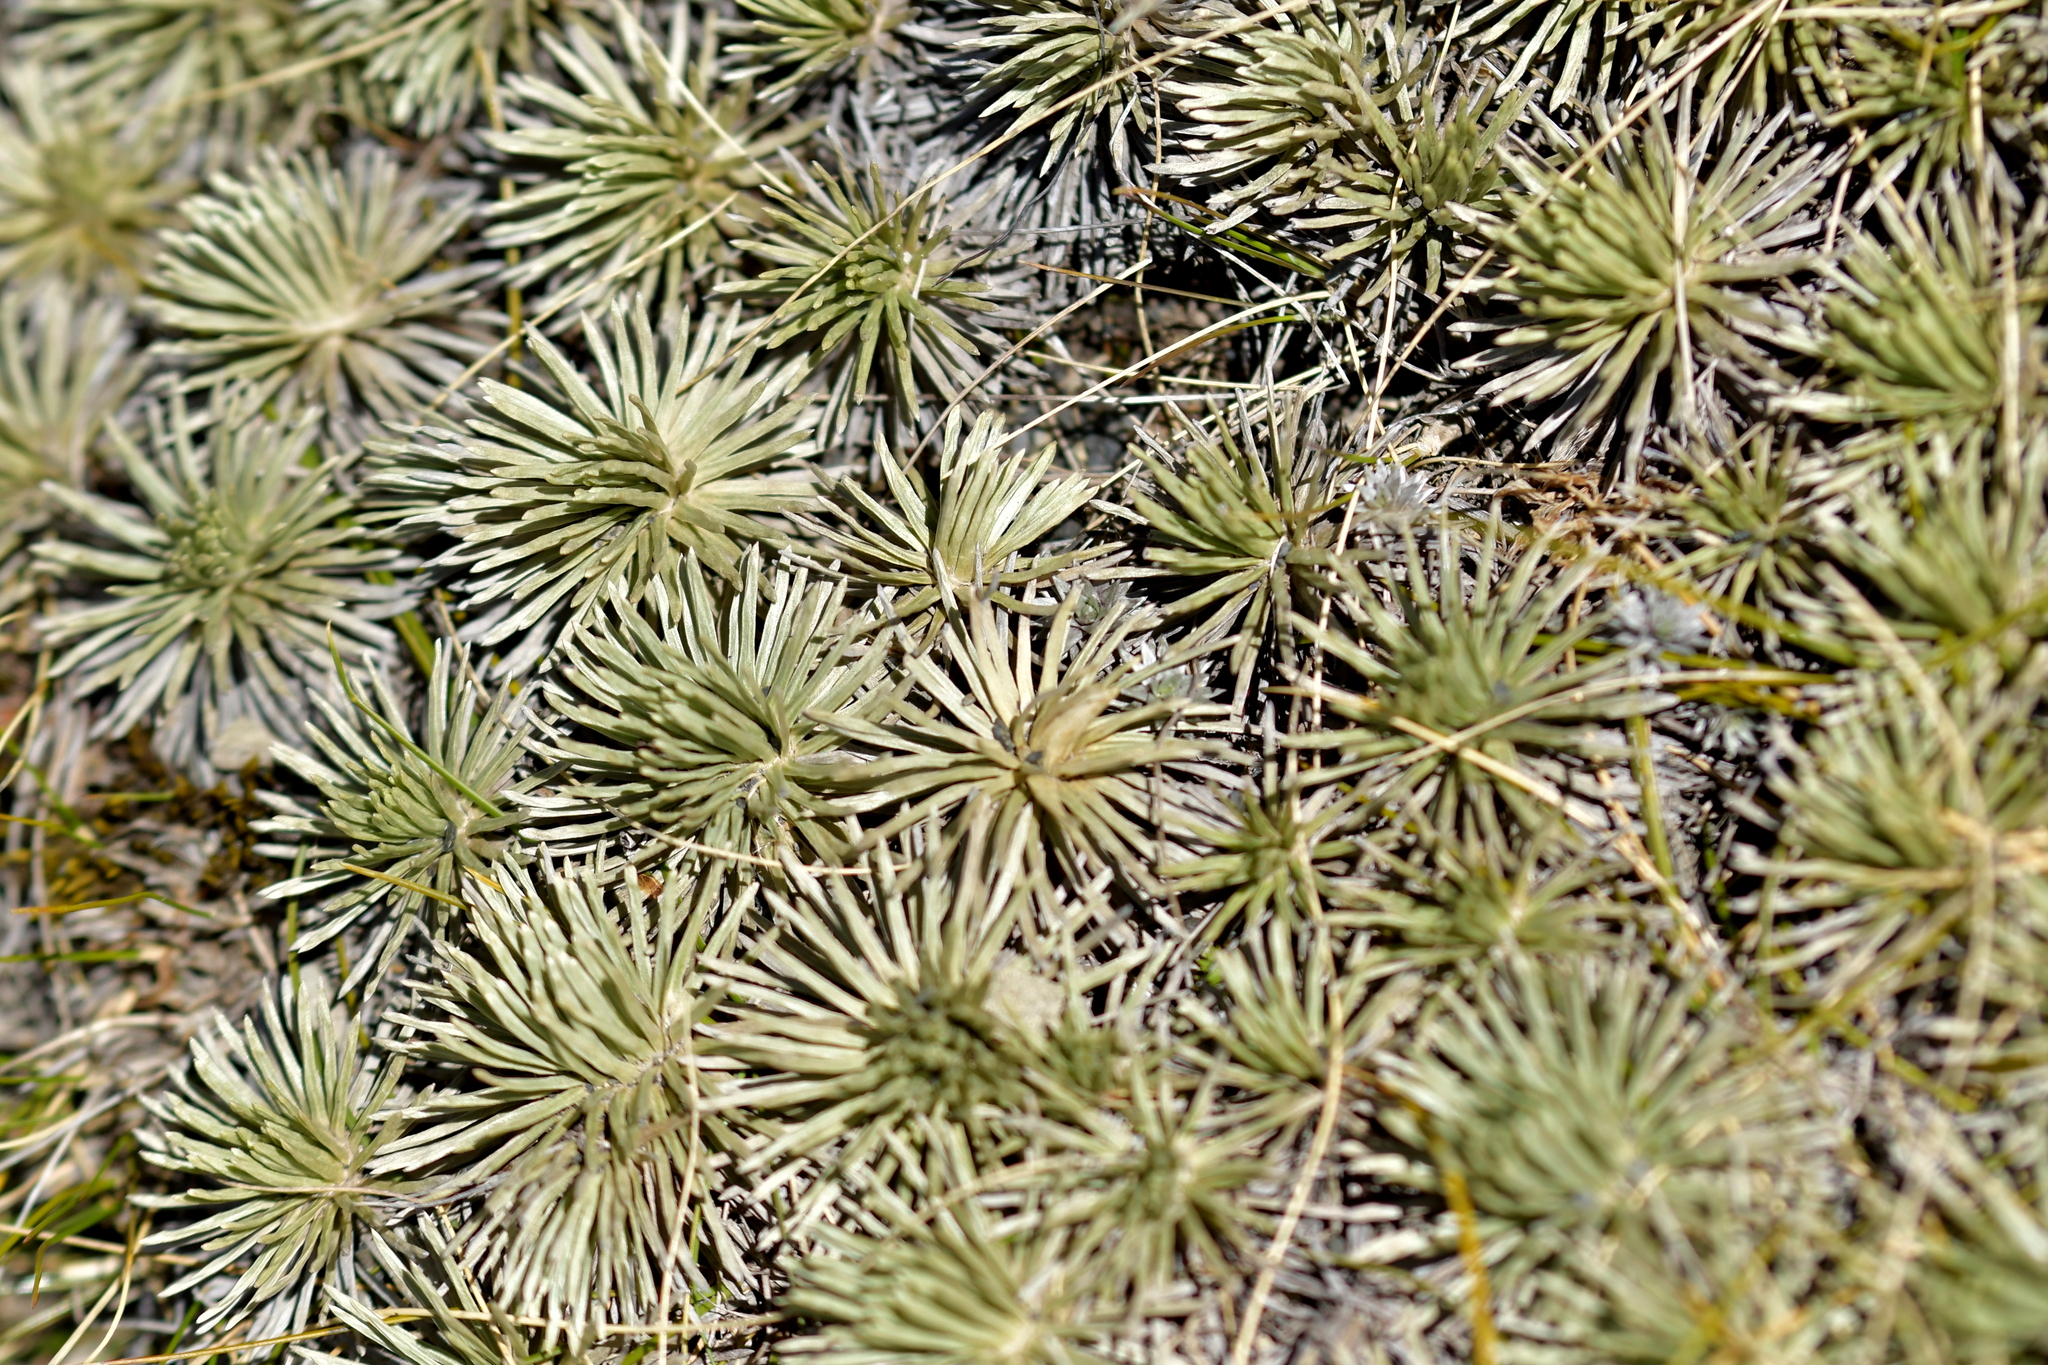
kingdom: Plantae
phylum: Tracheophyta
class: Magnoliopsida
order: Asterales
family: Asteraceae
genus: Celmisia
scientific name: Celmisia sessiliflora
